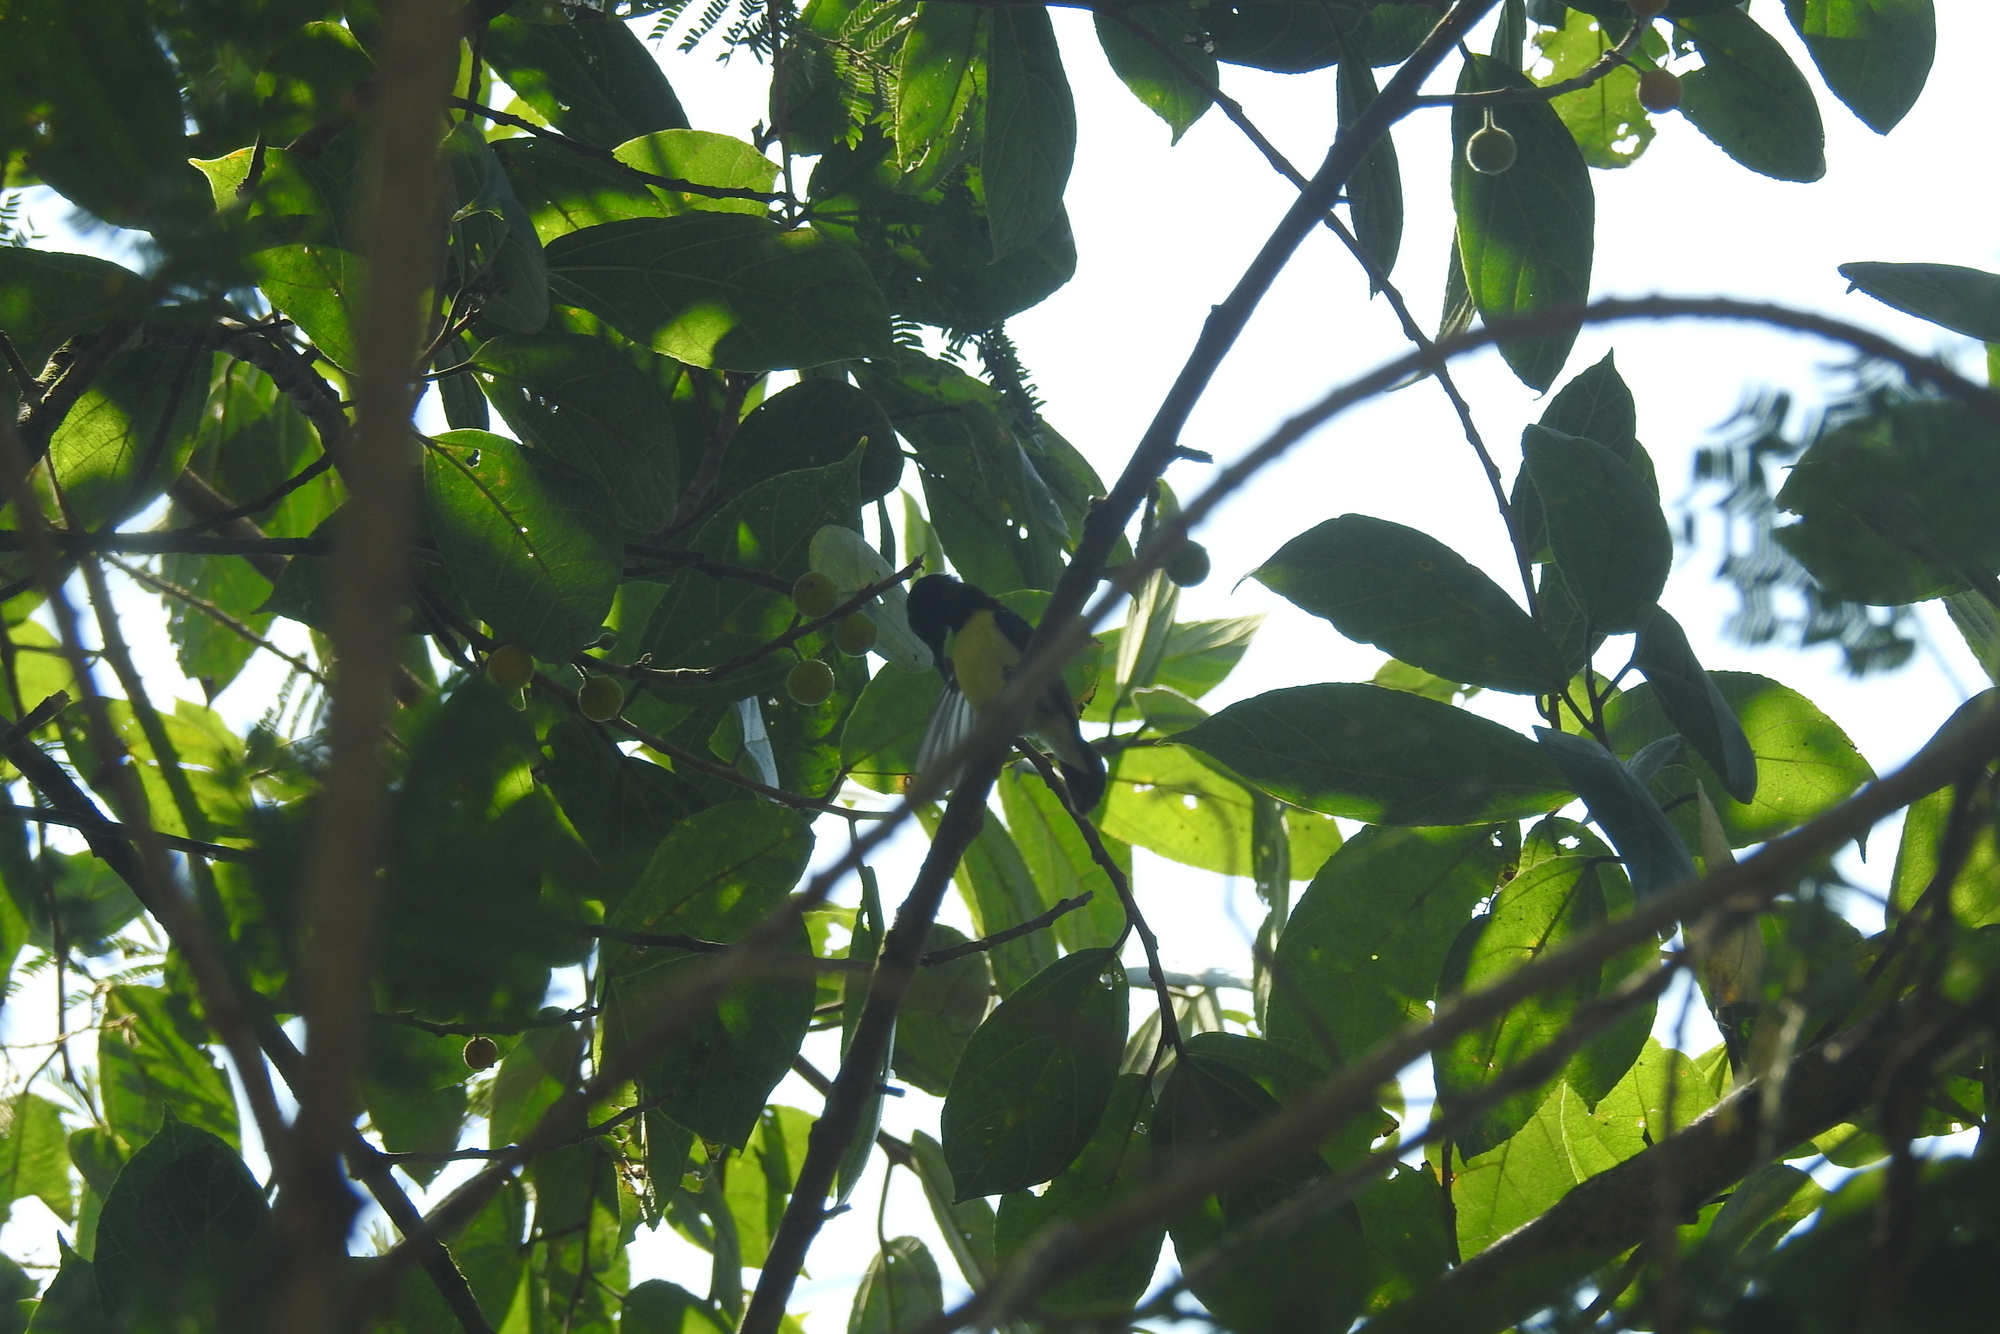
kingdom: Animalia
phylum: Chordata
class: Aves
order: Passeriformes
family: Nectariniidae
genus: Leptocoma
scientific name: Leptocoma zeylonica
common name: Purple-rumped sunbird
